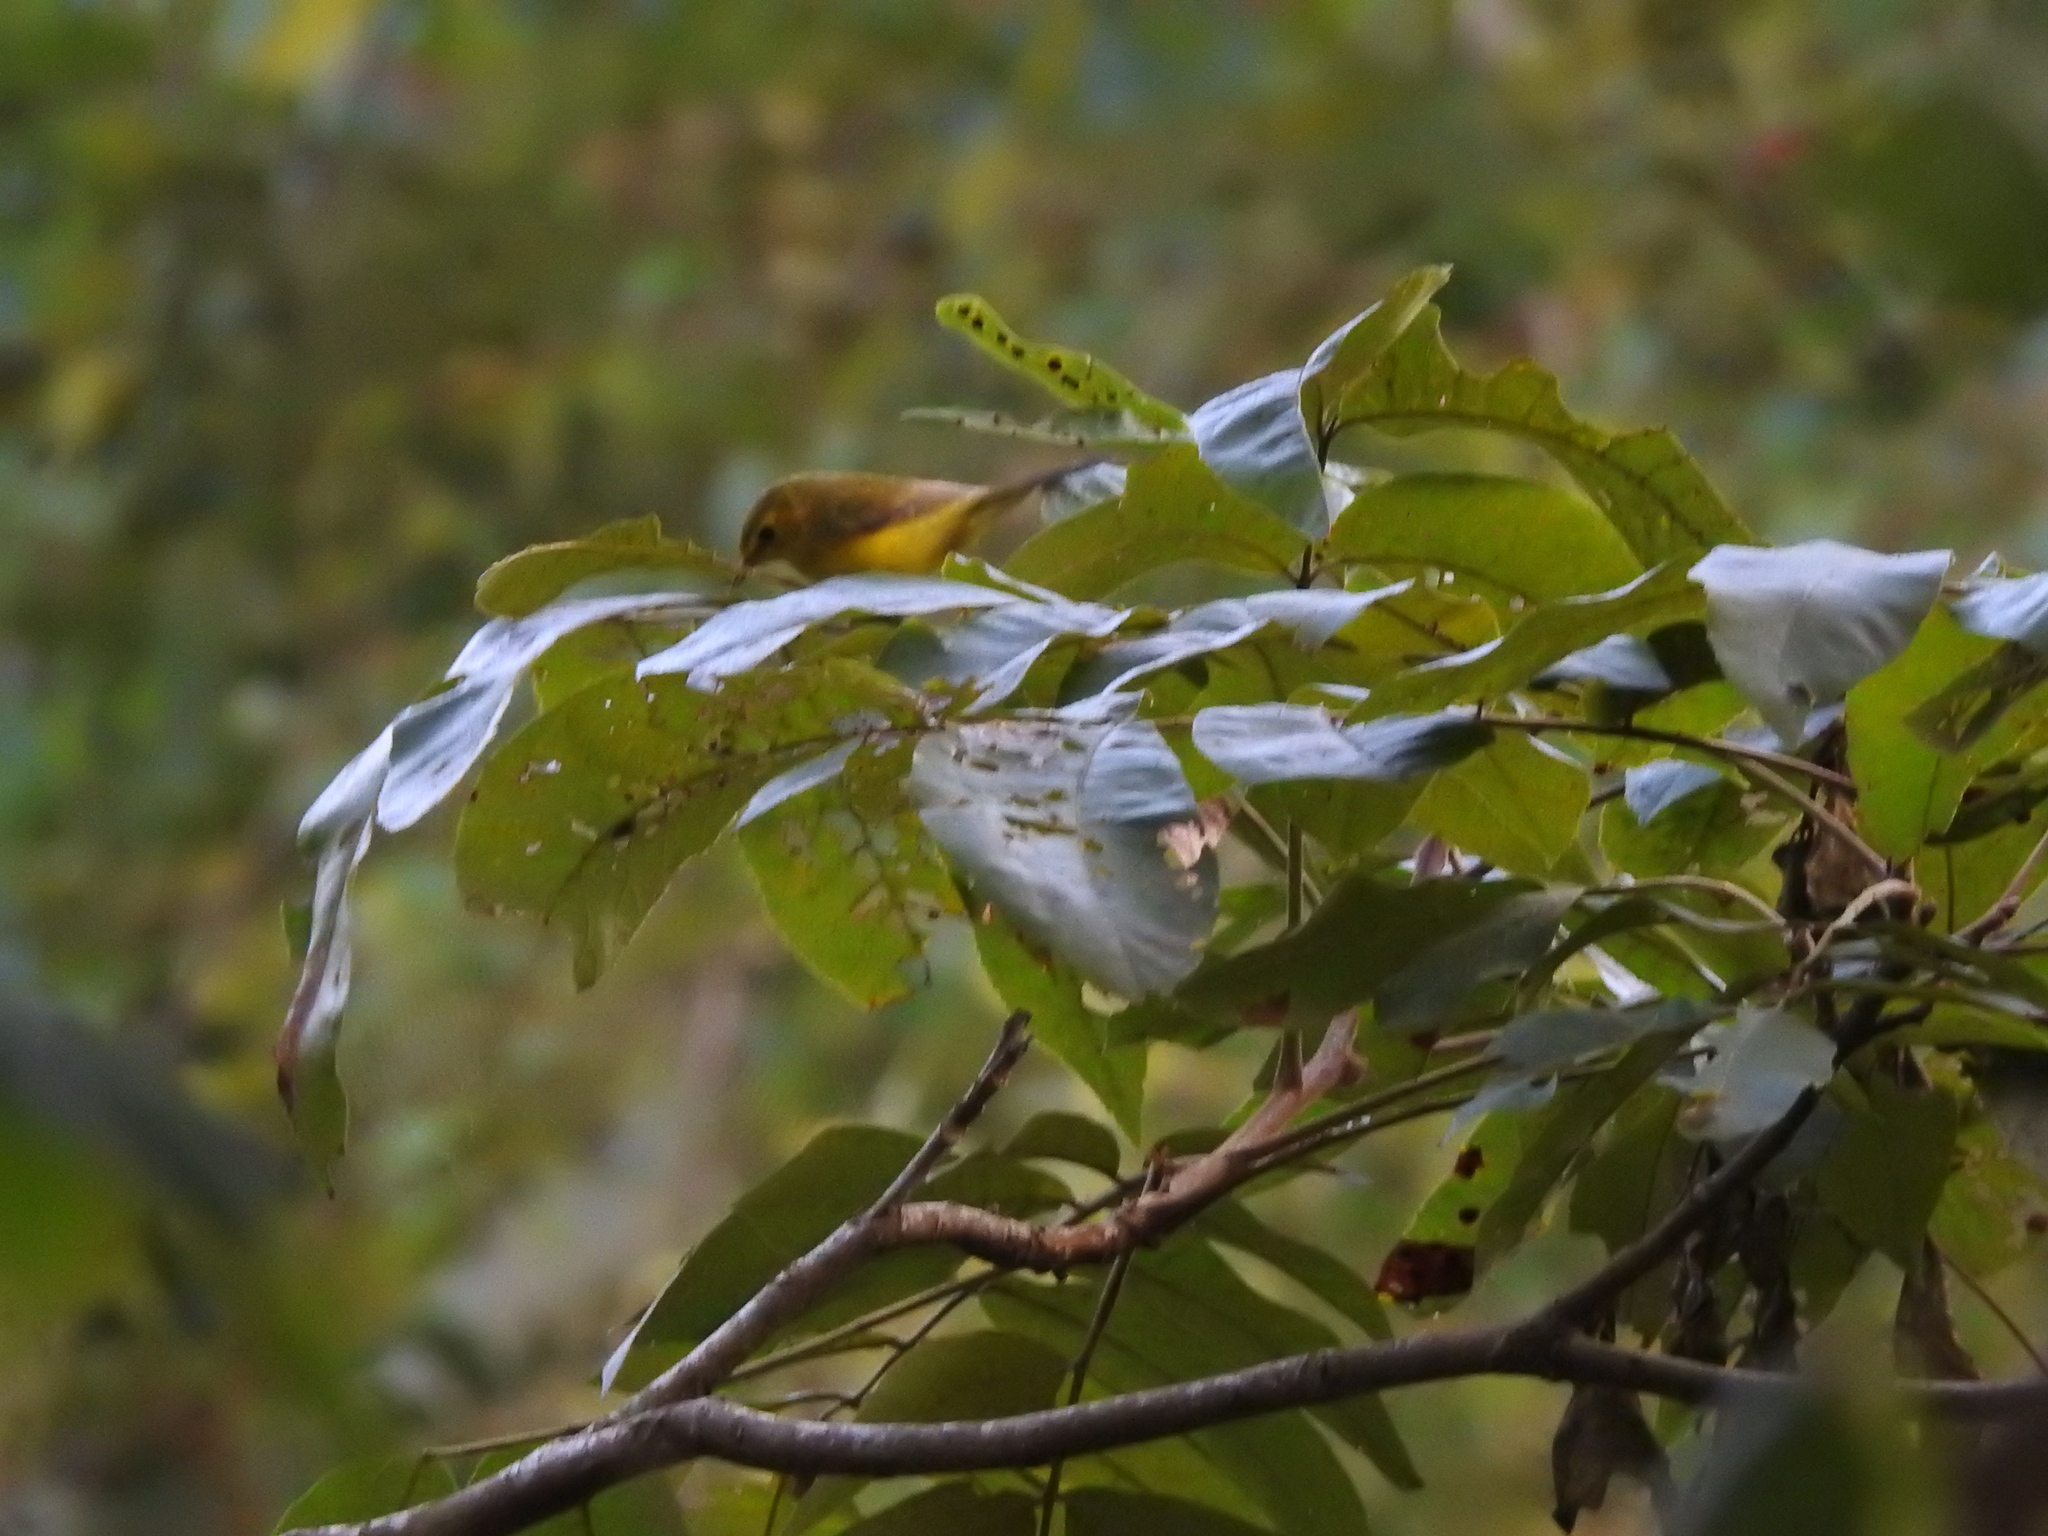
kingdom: Animalia
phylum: Chordata
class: Aves
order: Passeriformes
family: Parulidae
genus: Setophaga
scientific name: Setophaga citrina
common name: Hooded warbler
